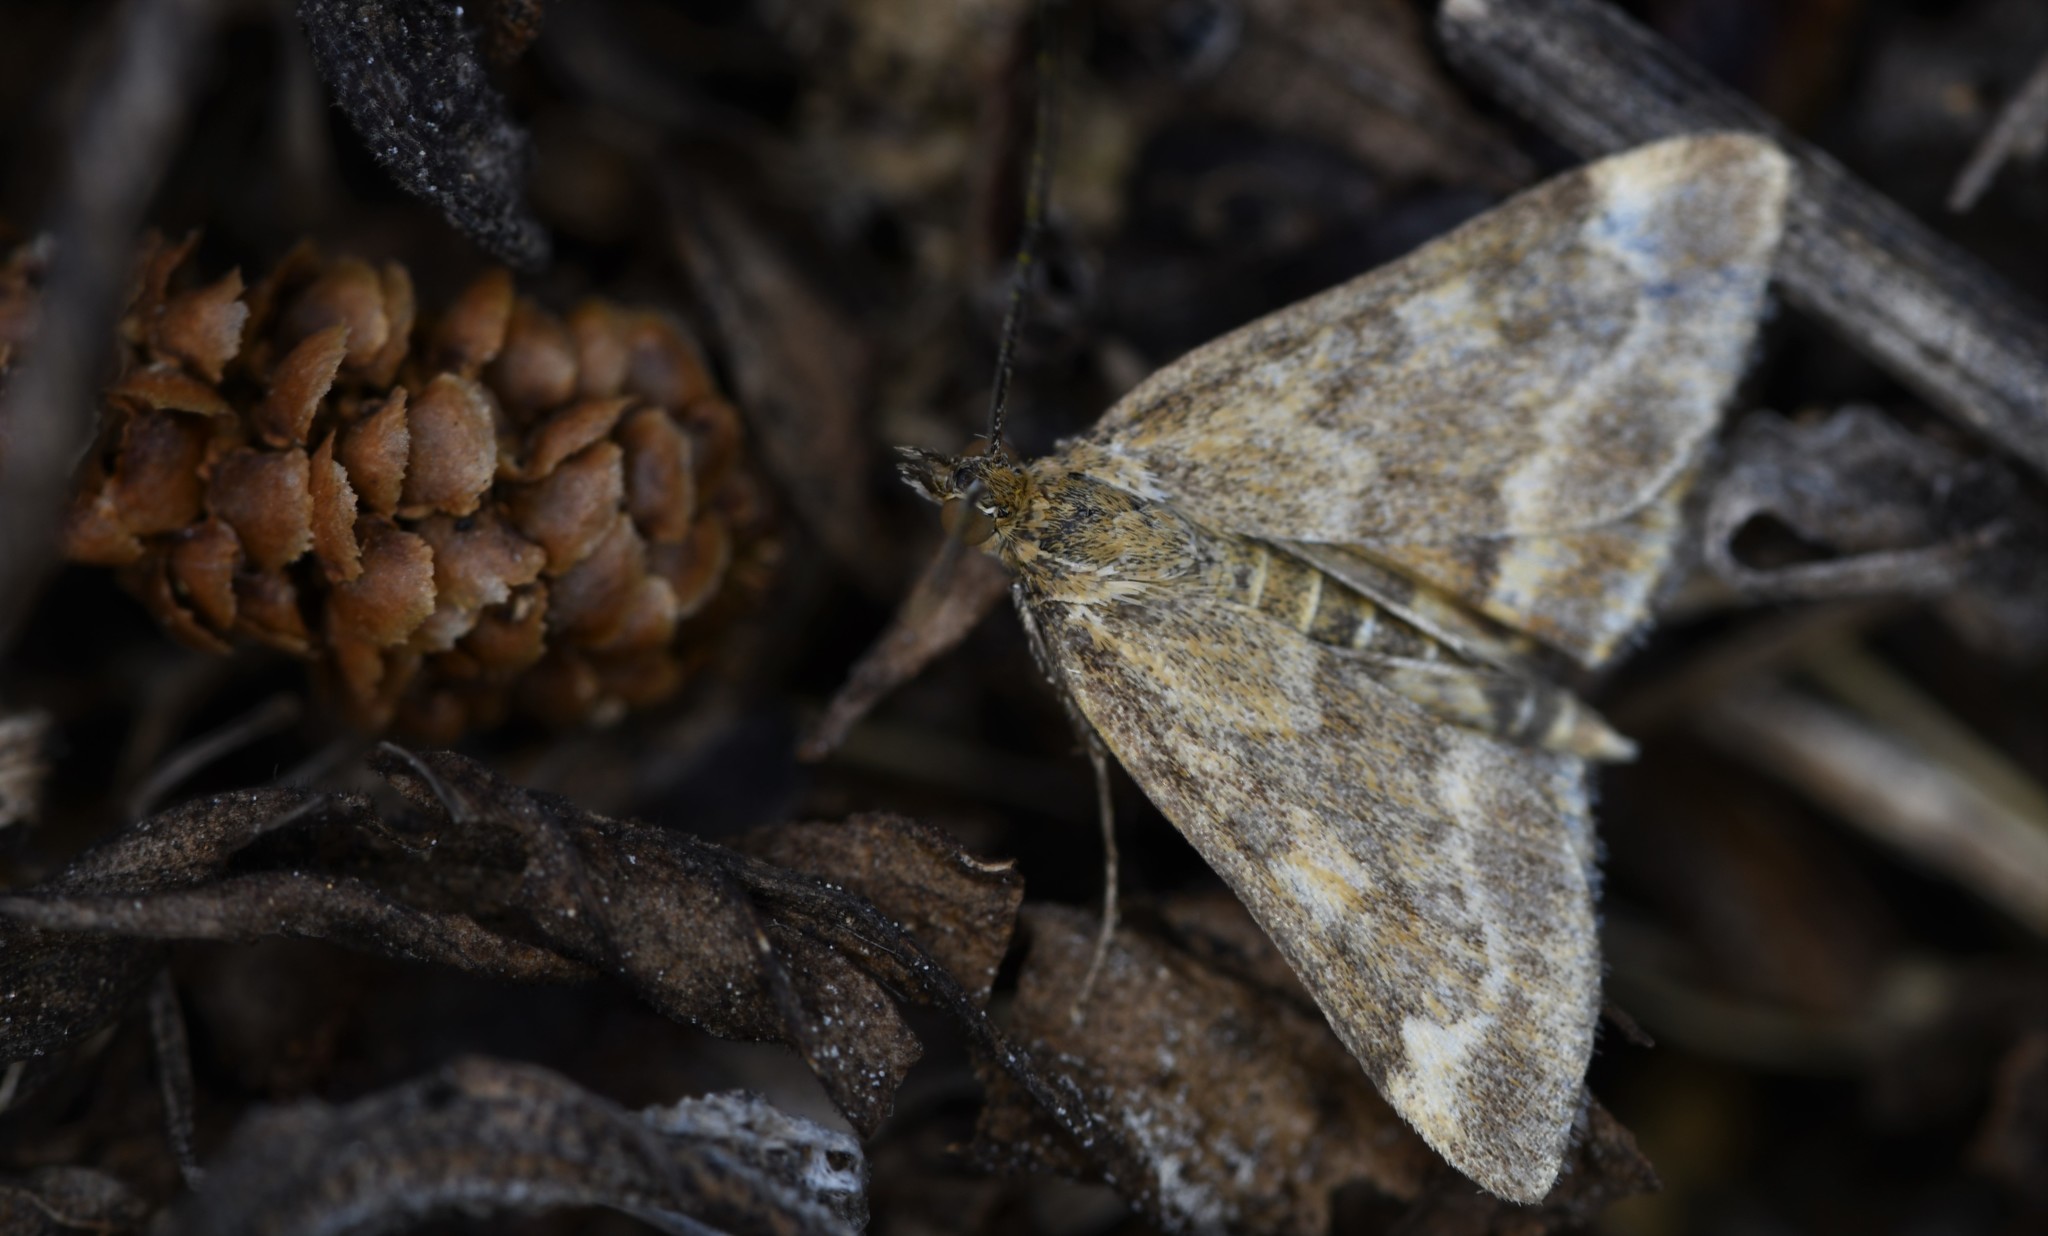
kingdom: Animalia
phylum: Arthropoda
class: Insecta
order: Lepidoptera
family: Crambidae
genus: Pyrausta
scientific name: Pyrausta despicata
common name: Straw-barred pearl
